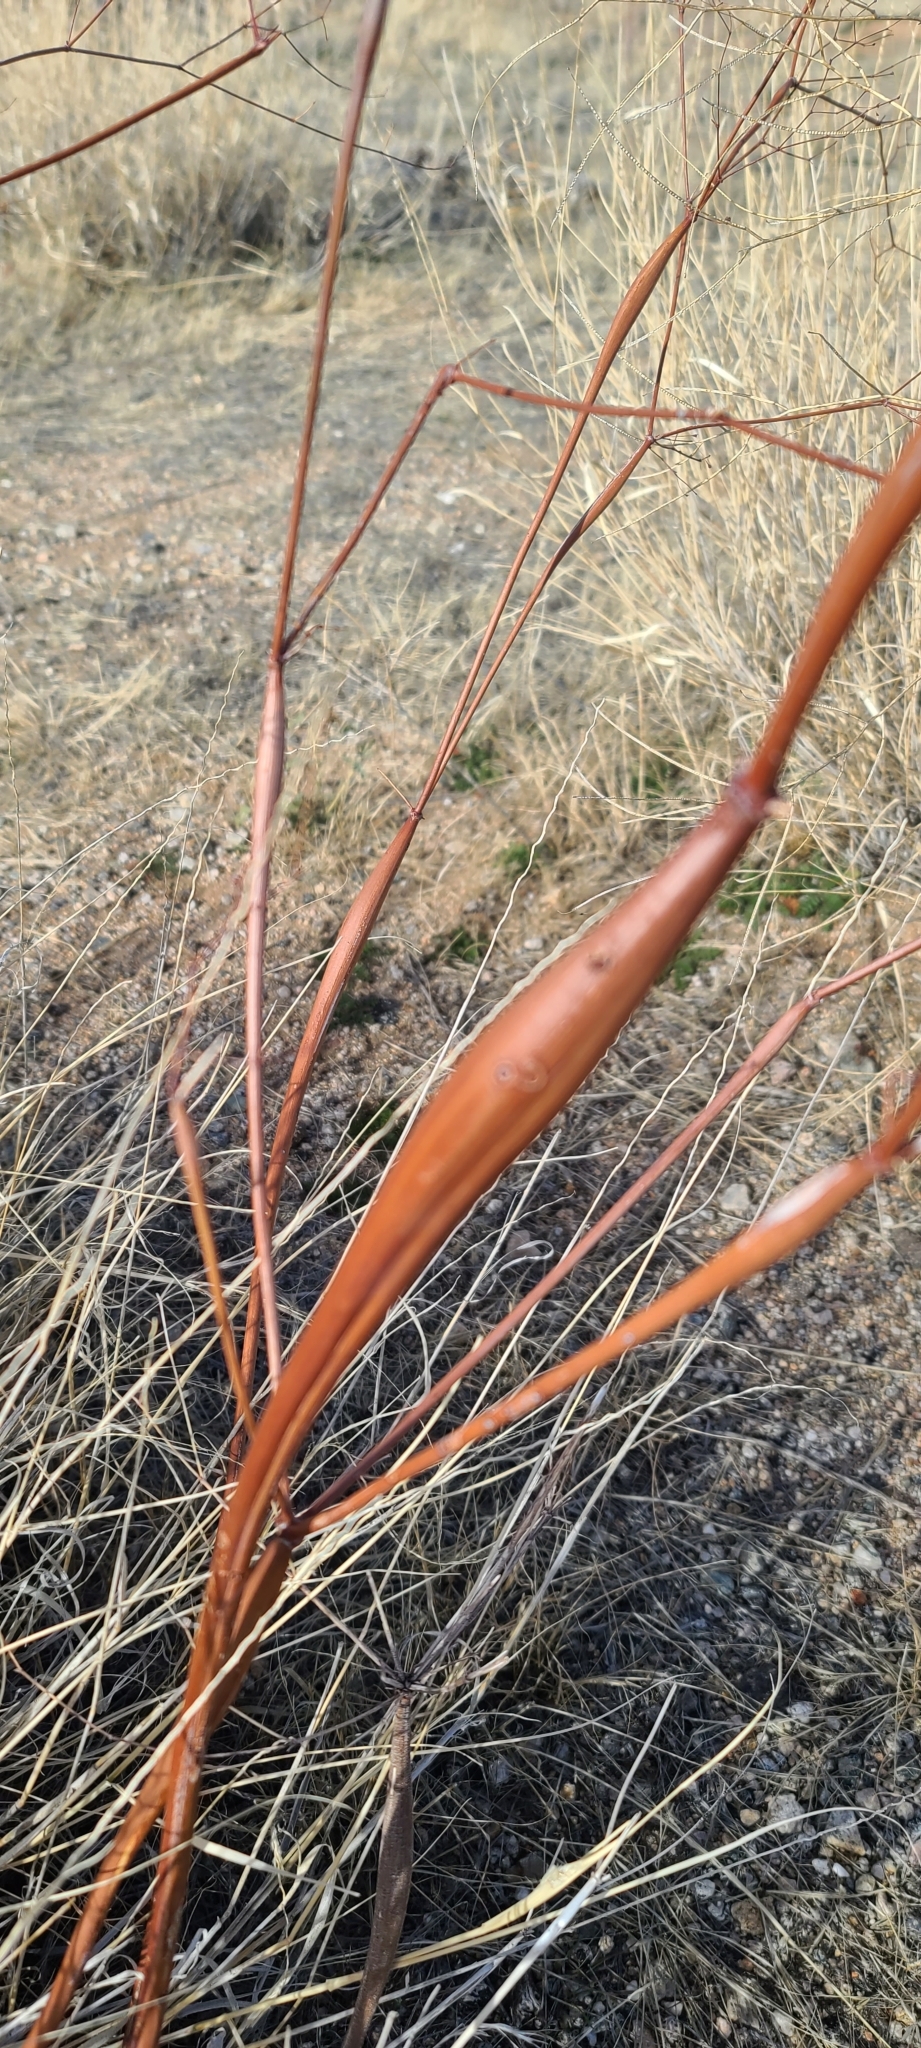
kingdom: Plantae
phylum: Tracheophyta
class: Magnoliopsida
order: Caryophyllales
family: Polygonaceae
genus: Eriogonum
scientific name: Eriogonum inflatum
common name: Desert trumpet
